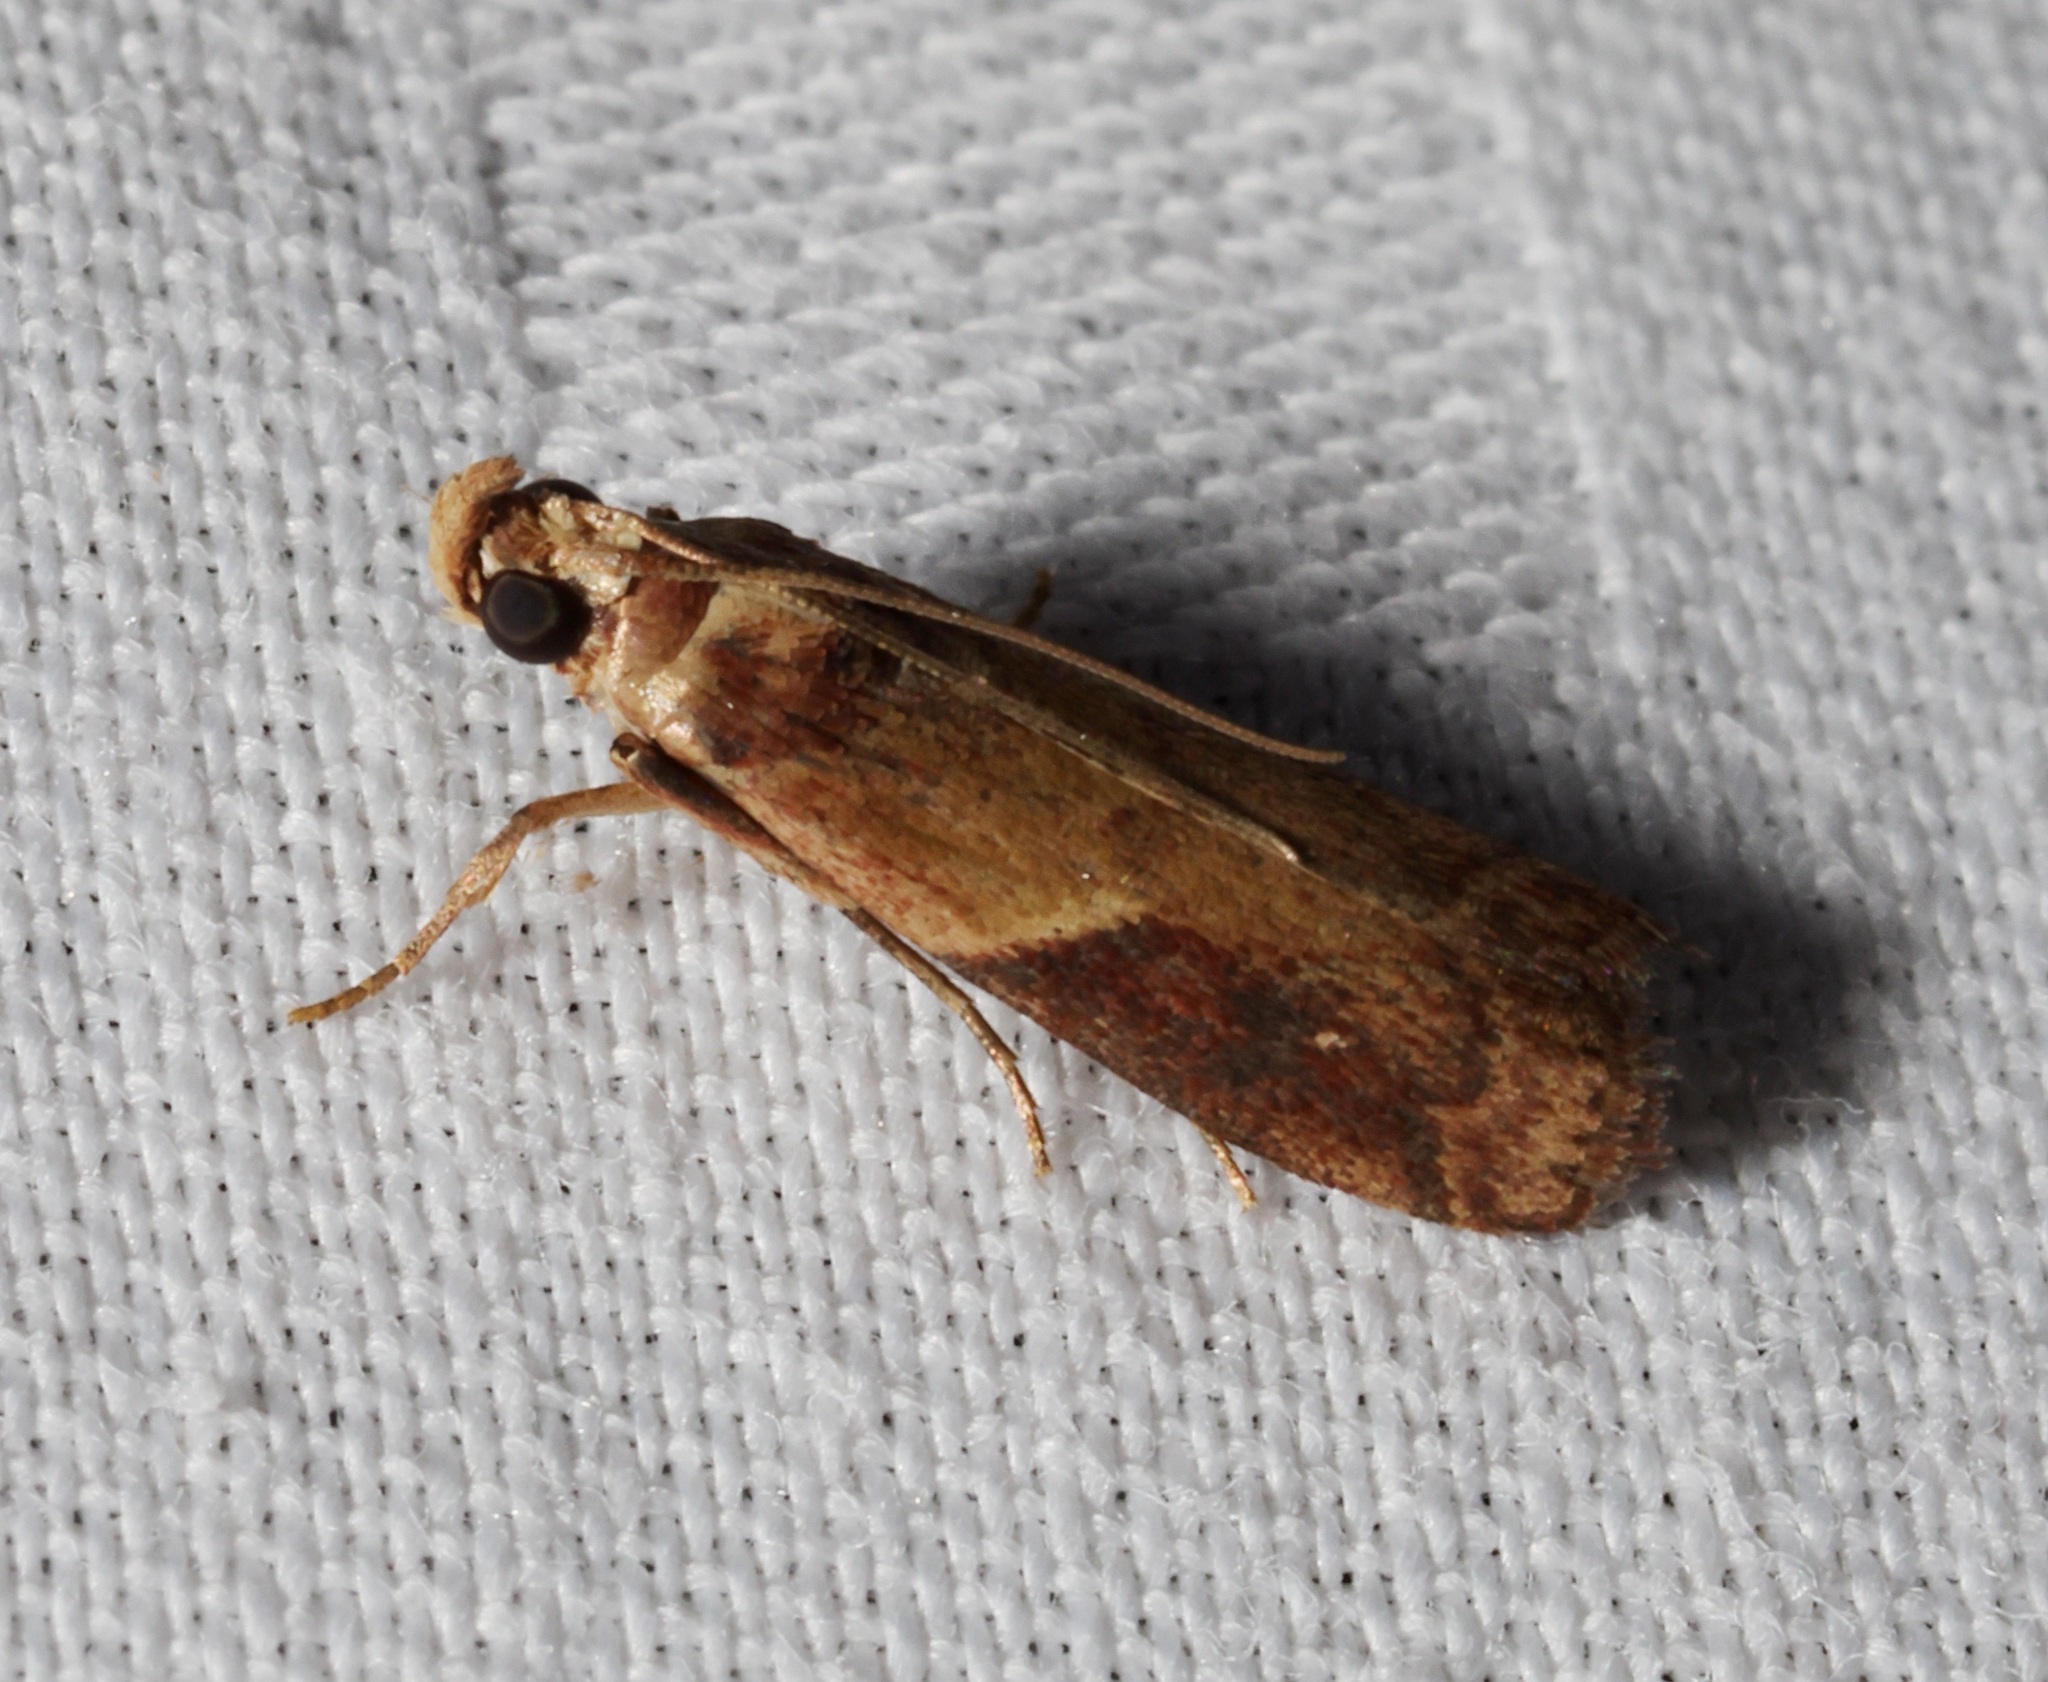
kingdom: Animalia
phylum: Arthropoda
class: Insecta
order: Lepidoptera
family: Pyralidae
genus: Volobilis
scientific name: Volobilis biplaga
